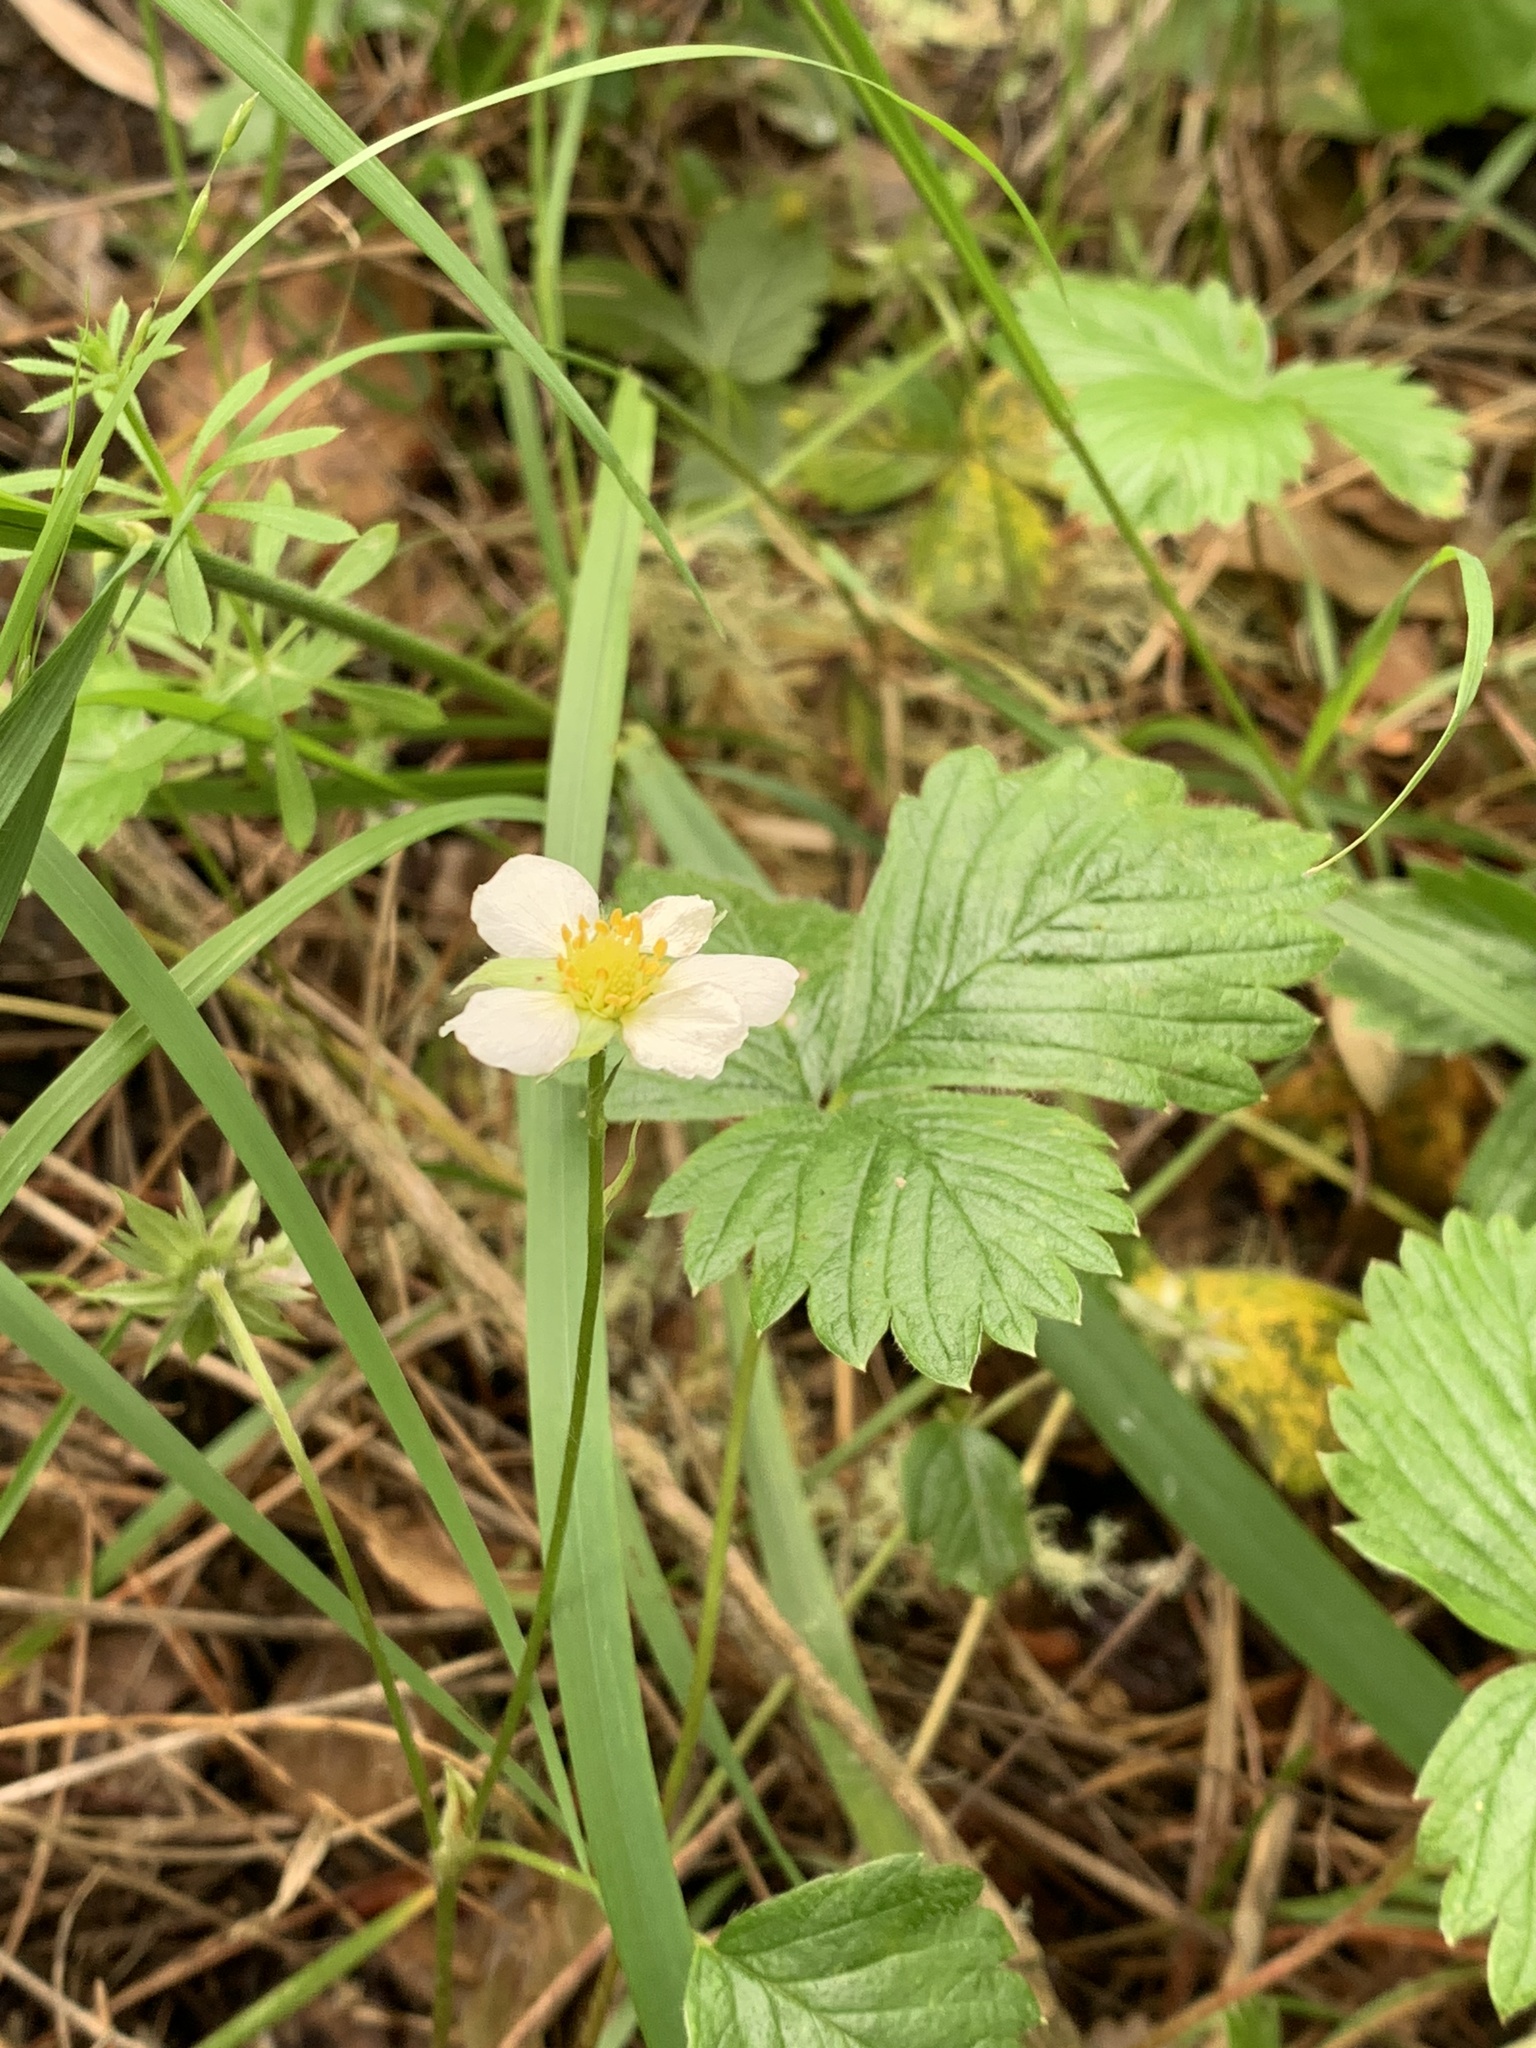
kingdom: Plantae
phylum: Tracheophyta
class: Magnoliopsida
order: Rosales
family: Rosaceae
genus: Fragaria
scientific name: Fragaria vesca
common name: Wild strawberry
